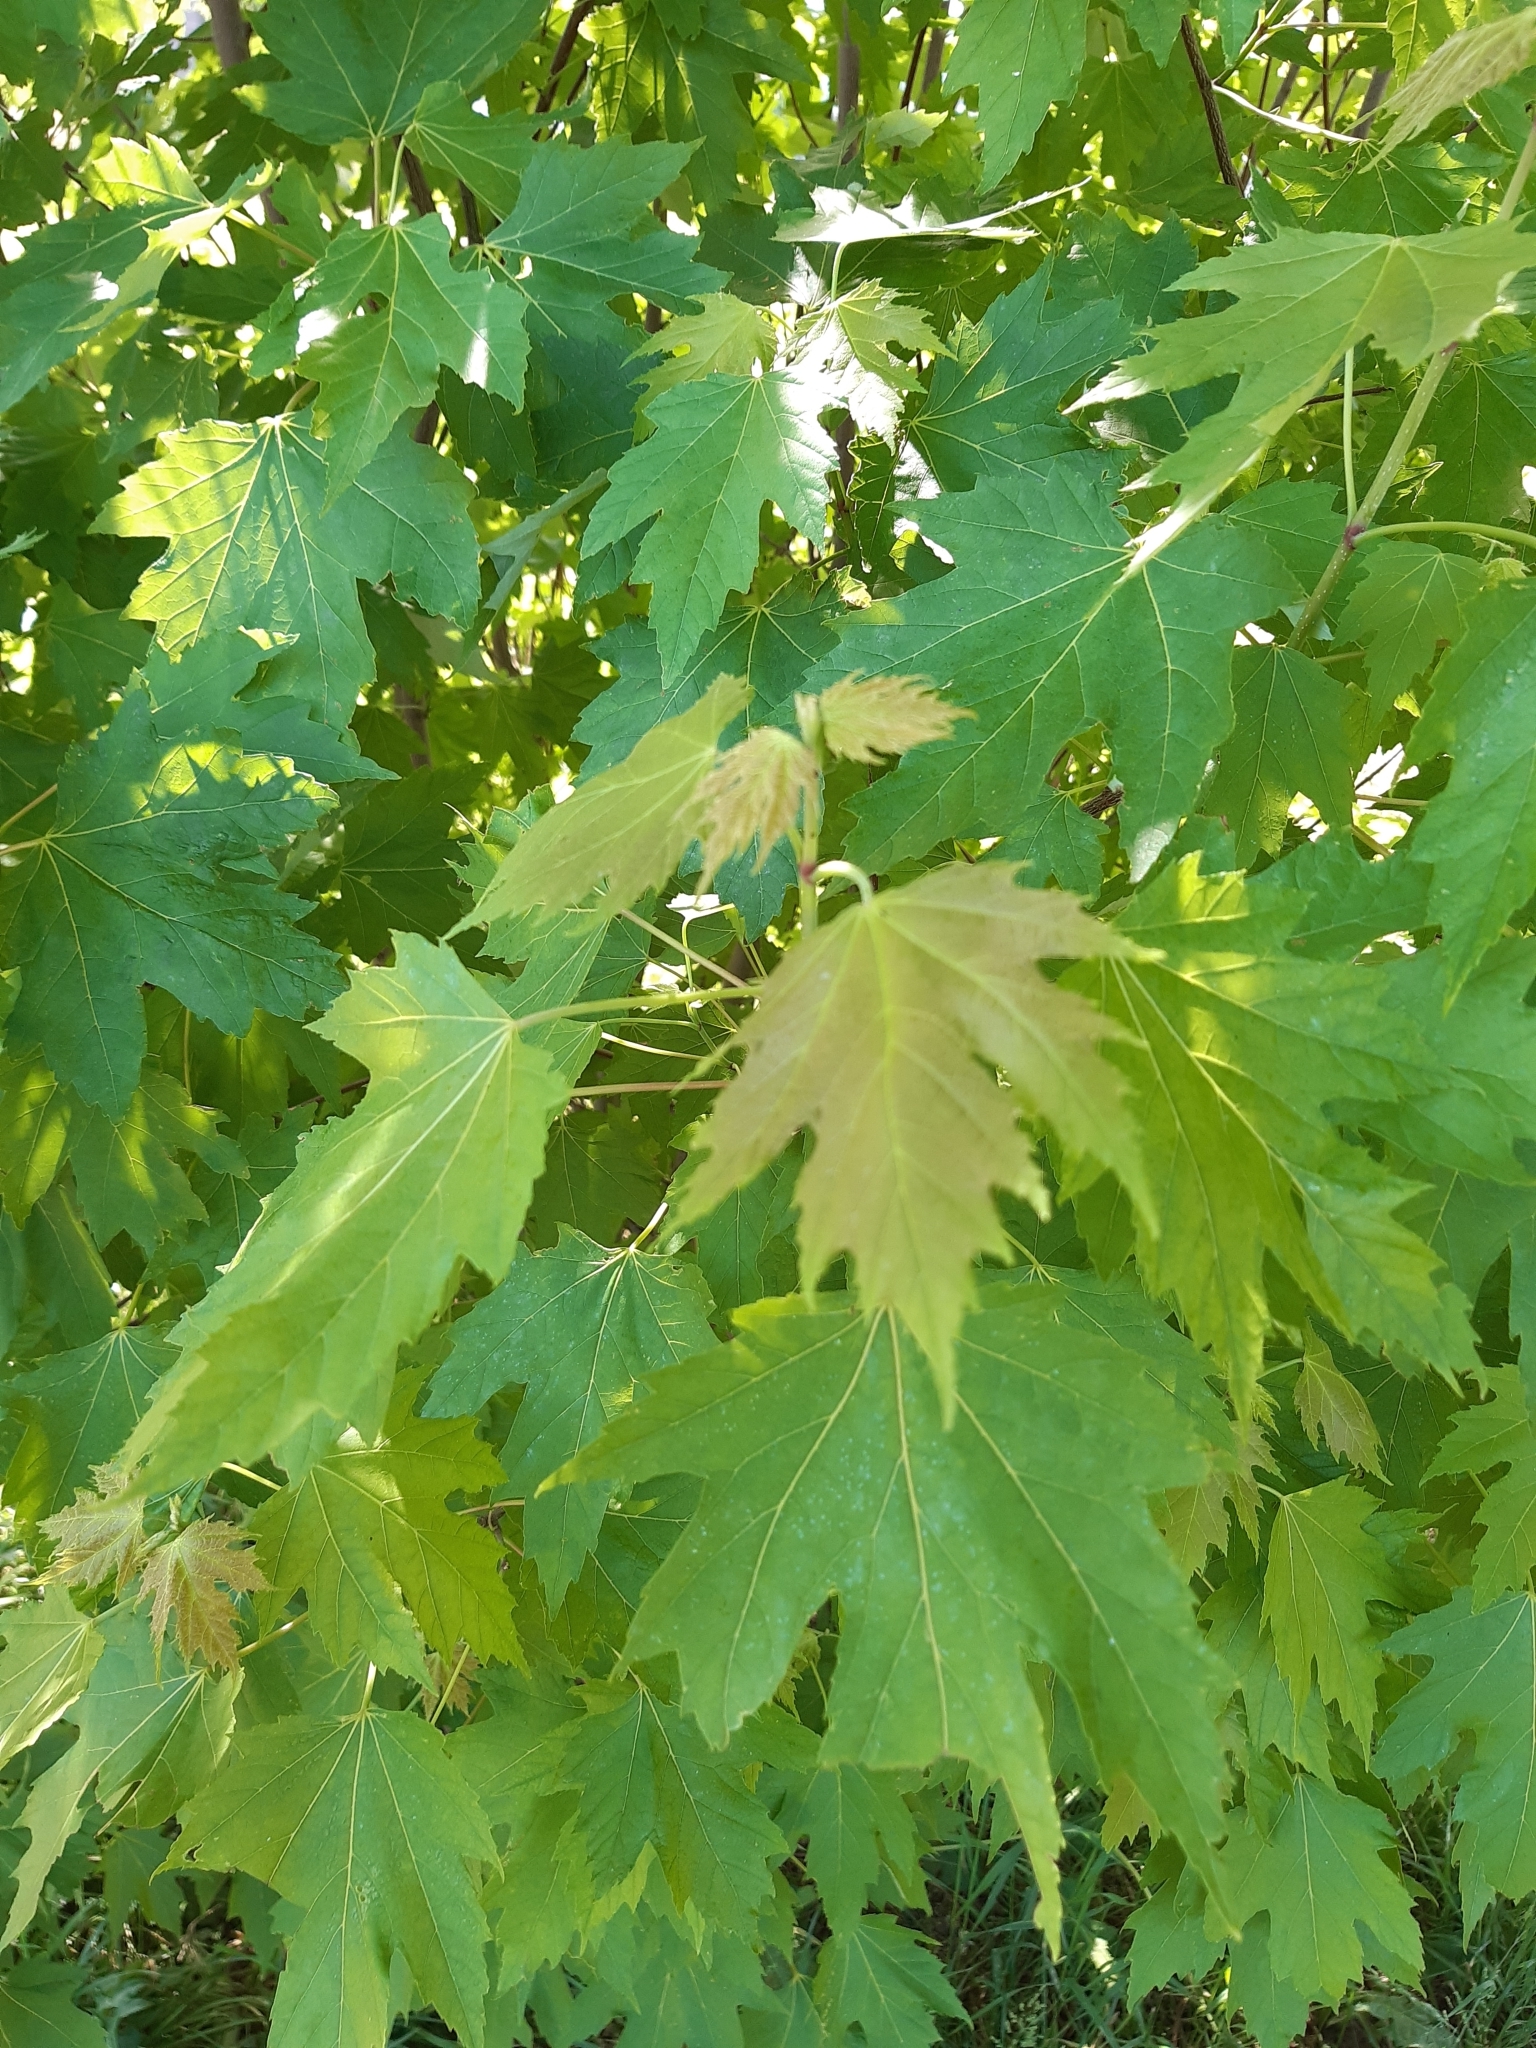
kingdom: Plantae
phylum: Tracheophyta
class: Magnoliopsida
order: Sapindales
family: Sapindaceae
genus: Acer
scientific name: Acer saccharinum
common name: Silver maple
